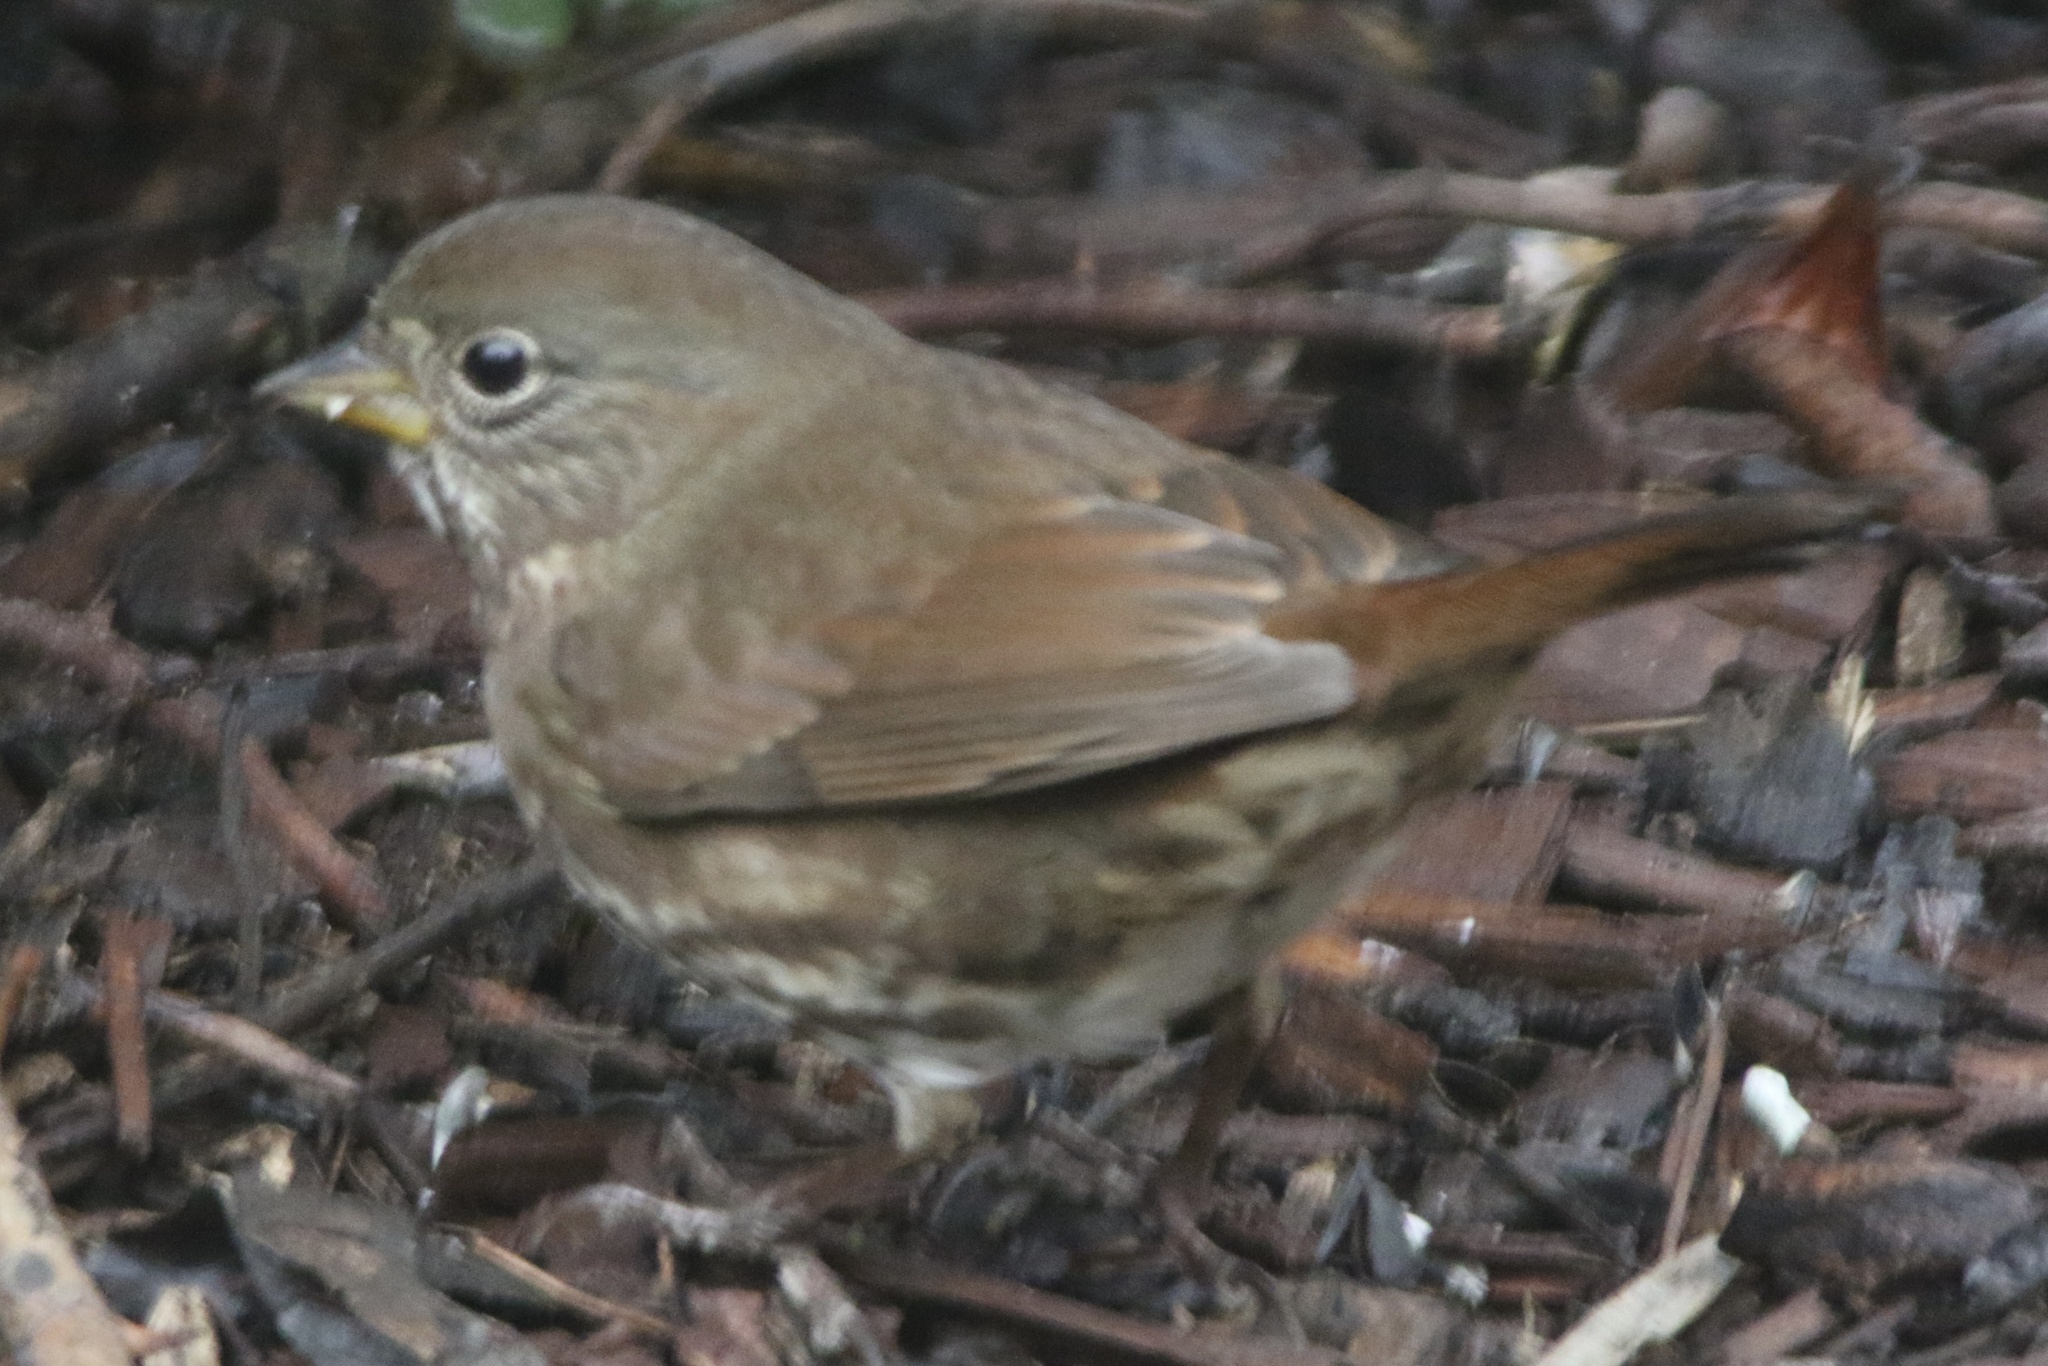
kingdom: Animalia
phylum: Chordata
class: Aves
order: Passeriformes
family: Passerellidae
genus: Passerella
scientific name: Passerella iliaca
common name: Fox sparrow
